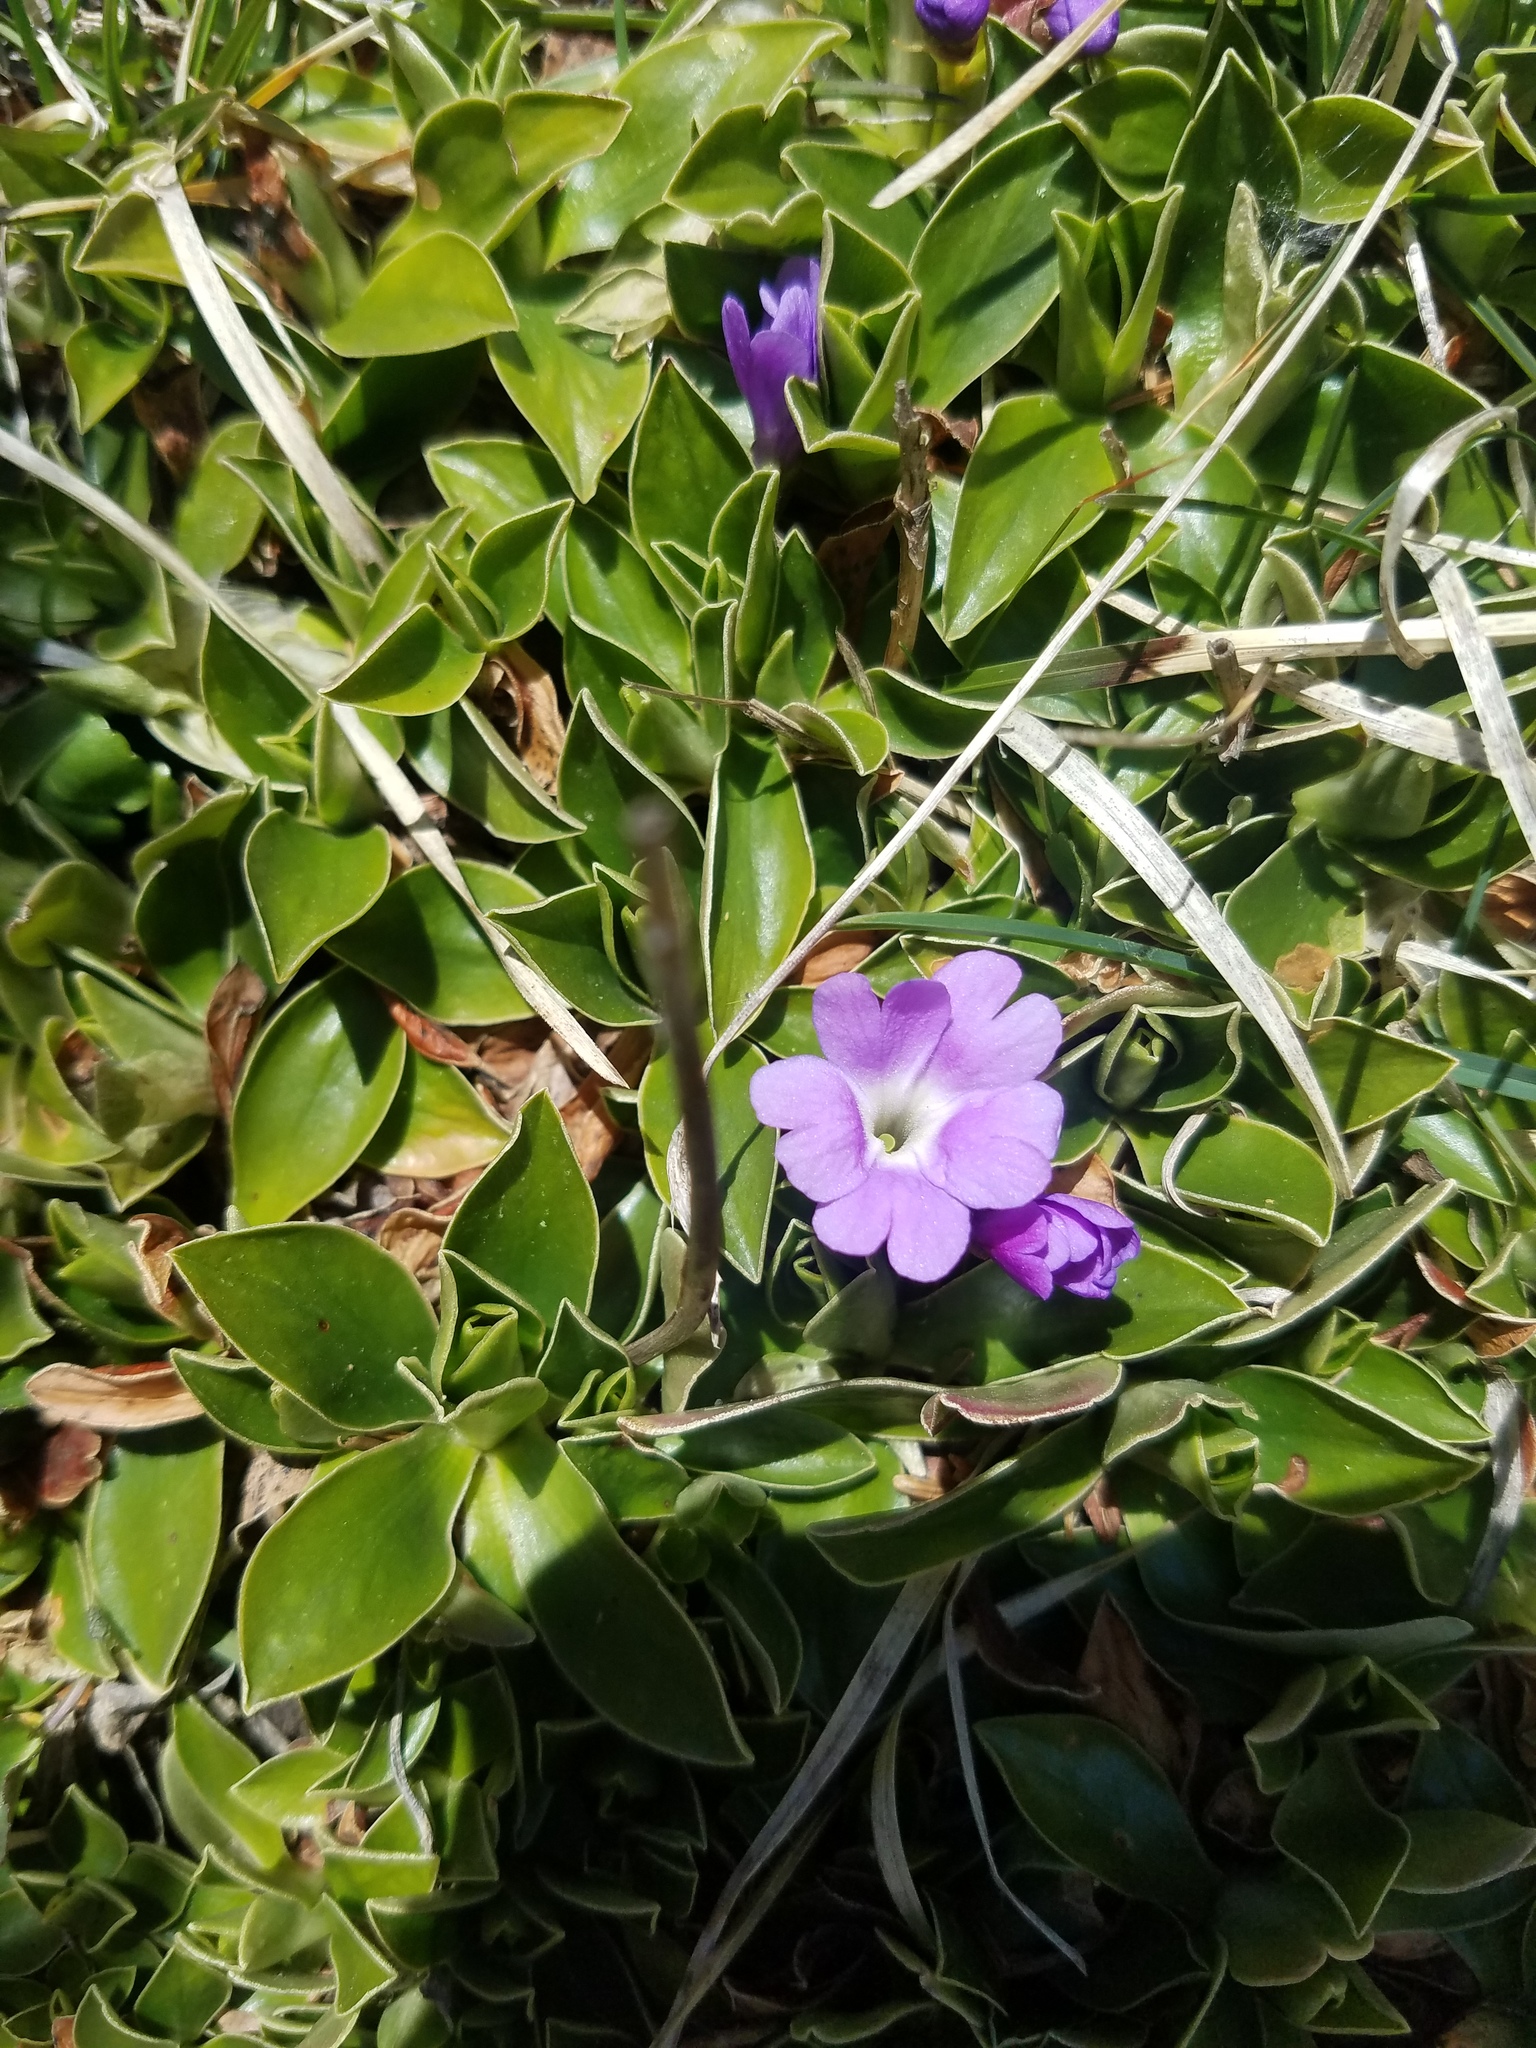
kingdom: Plantae
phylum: Tracheophyta
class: Magnoliopsida
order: Ericales
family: Primulaceae
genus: Primula
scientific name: Primula wulfeniana
